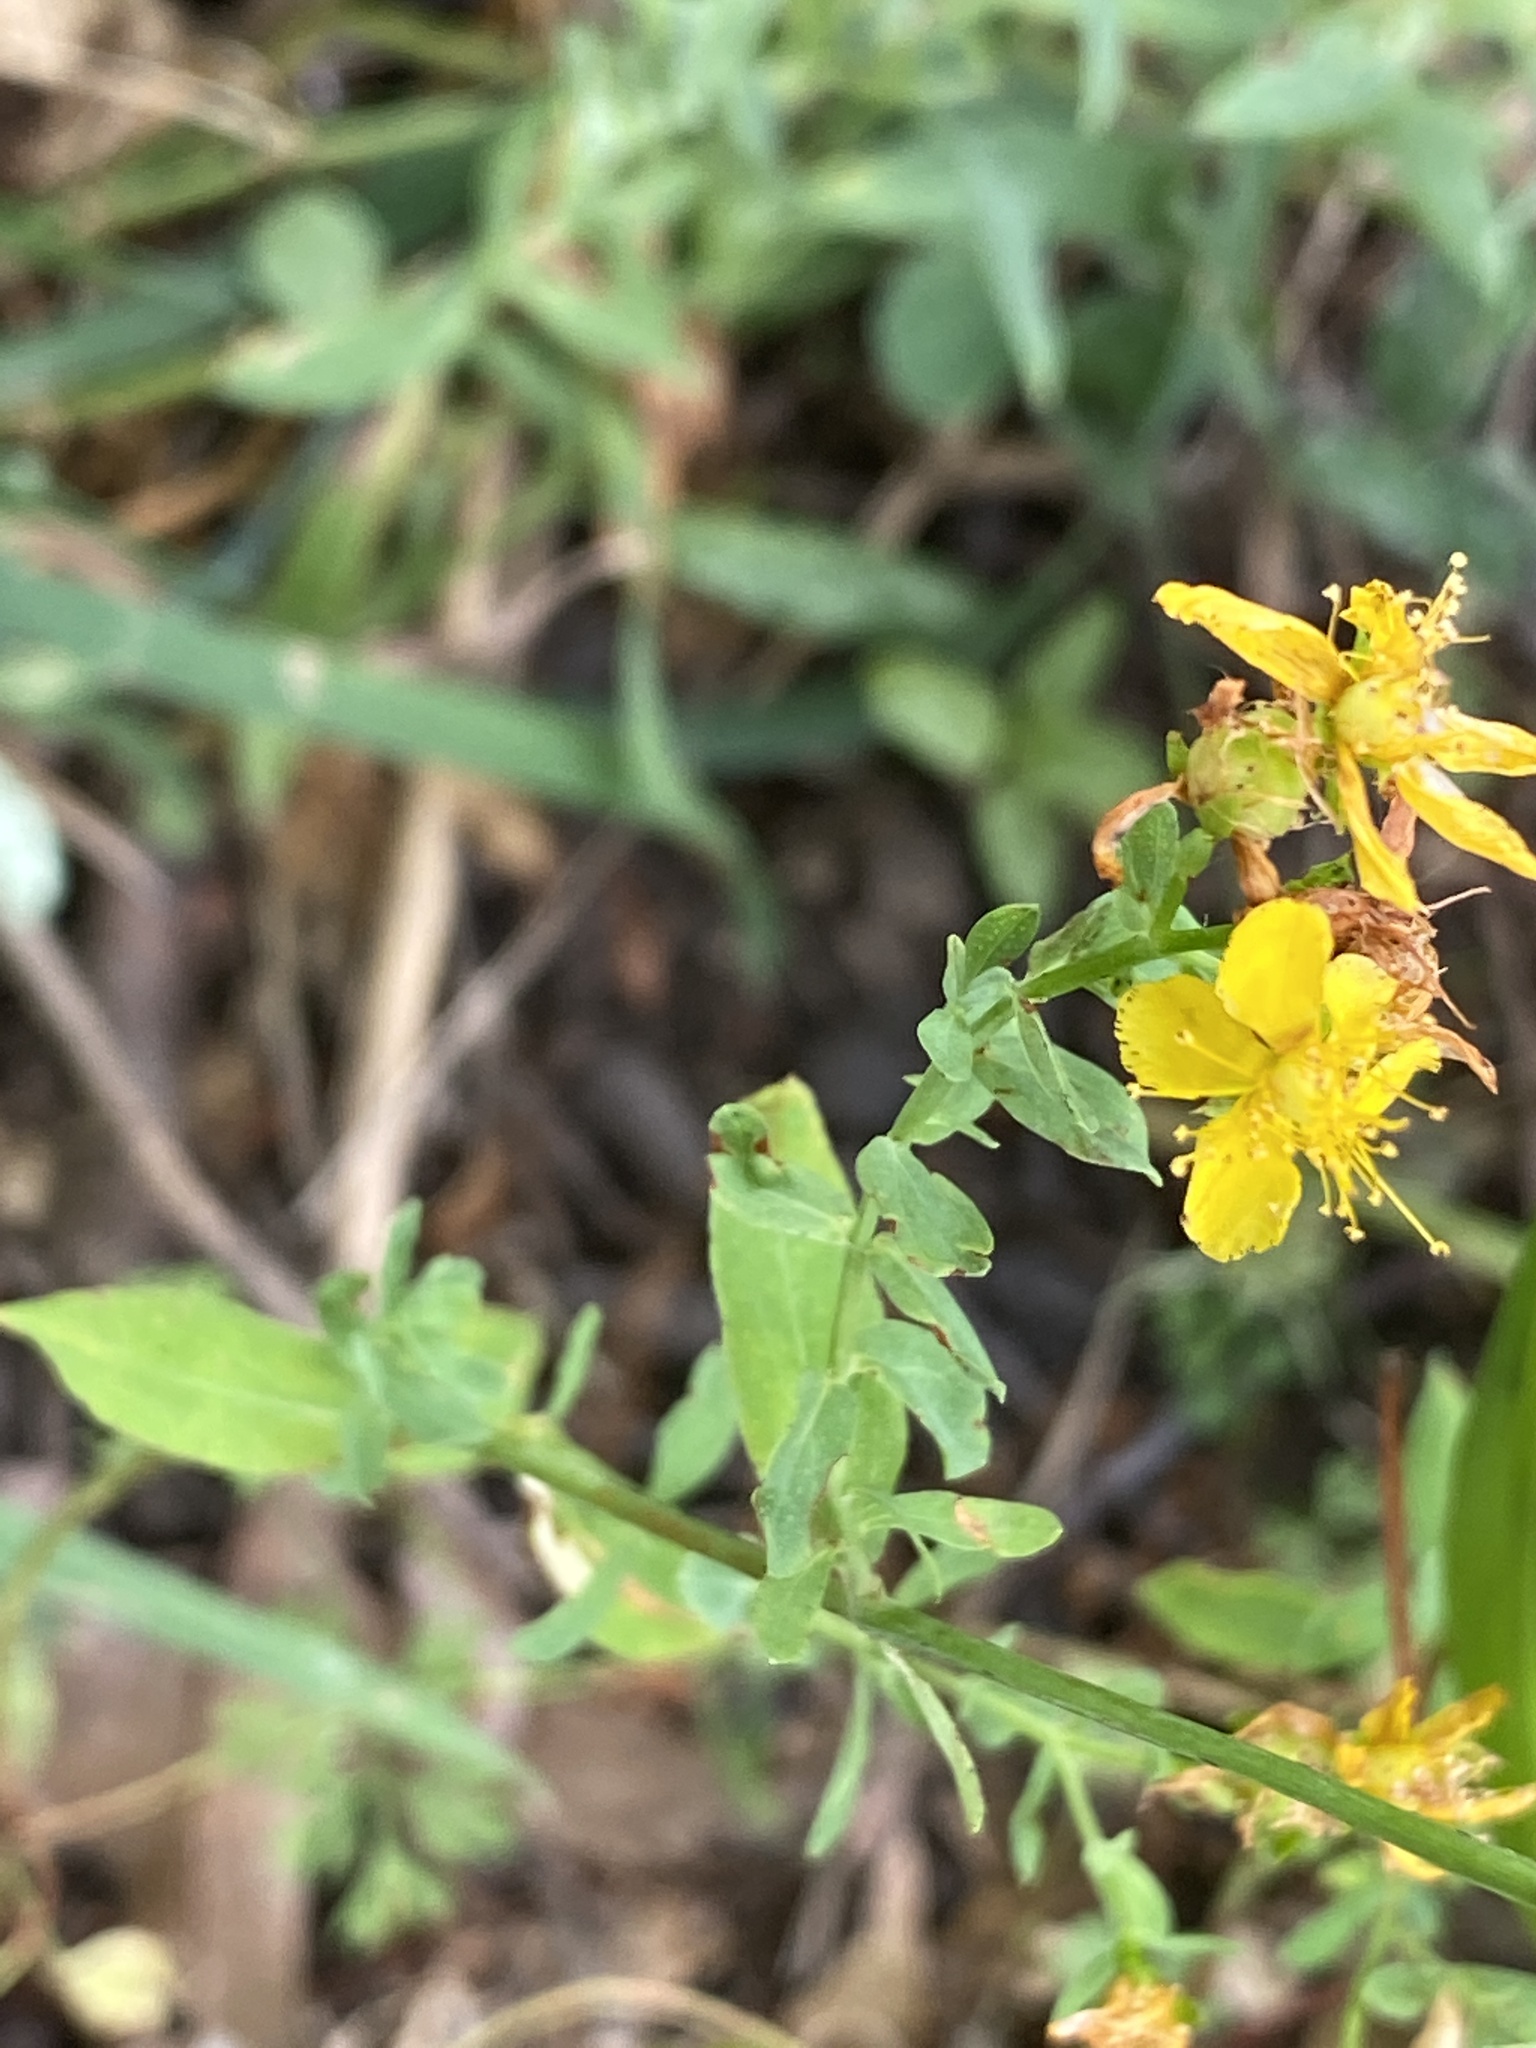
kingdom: Plantae
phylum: Tracheophyta
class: Magnoliopsida
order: Malpighiales
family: Hypericaceae
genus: Hypericum
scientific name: Hypericum perforatum
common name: Common st. johnswort
